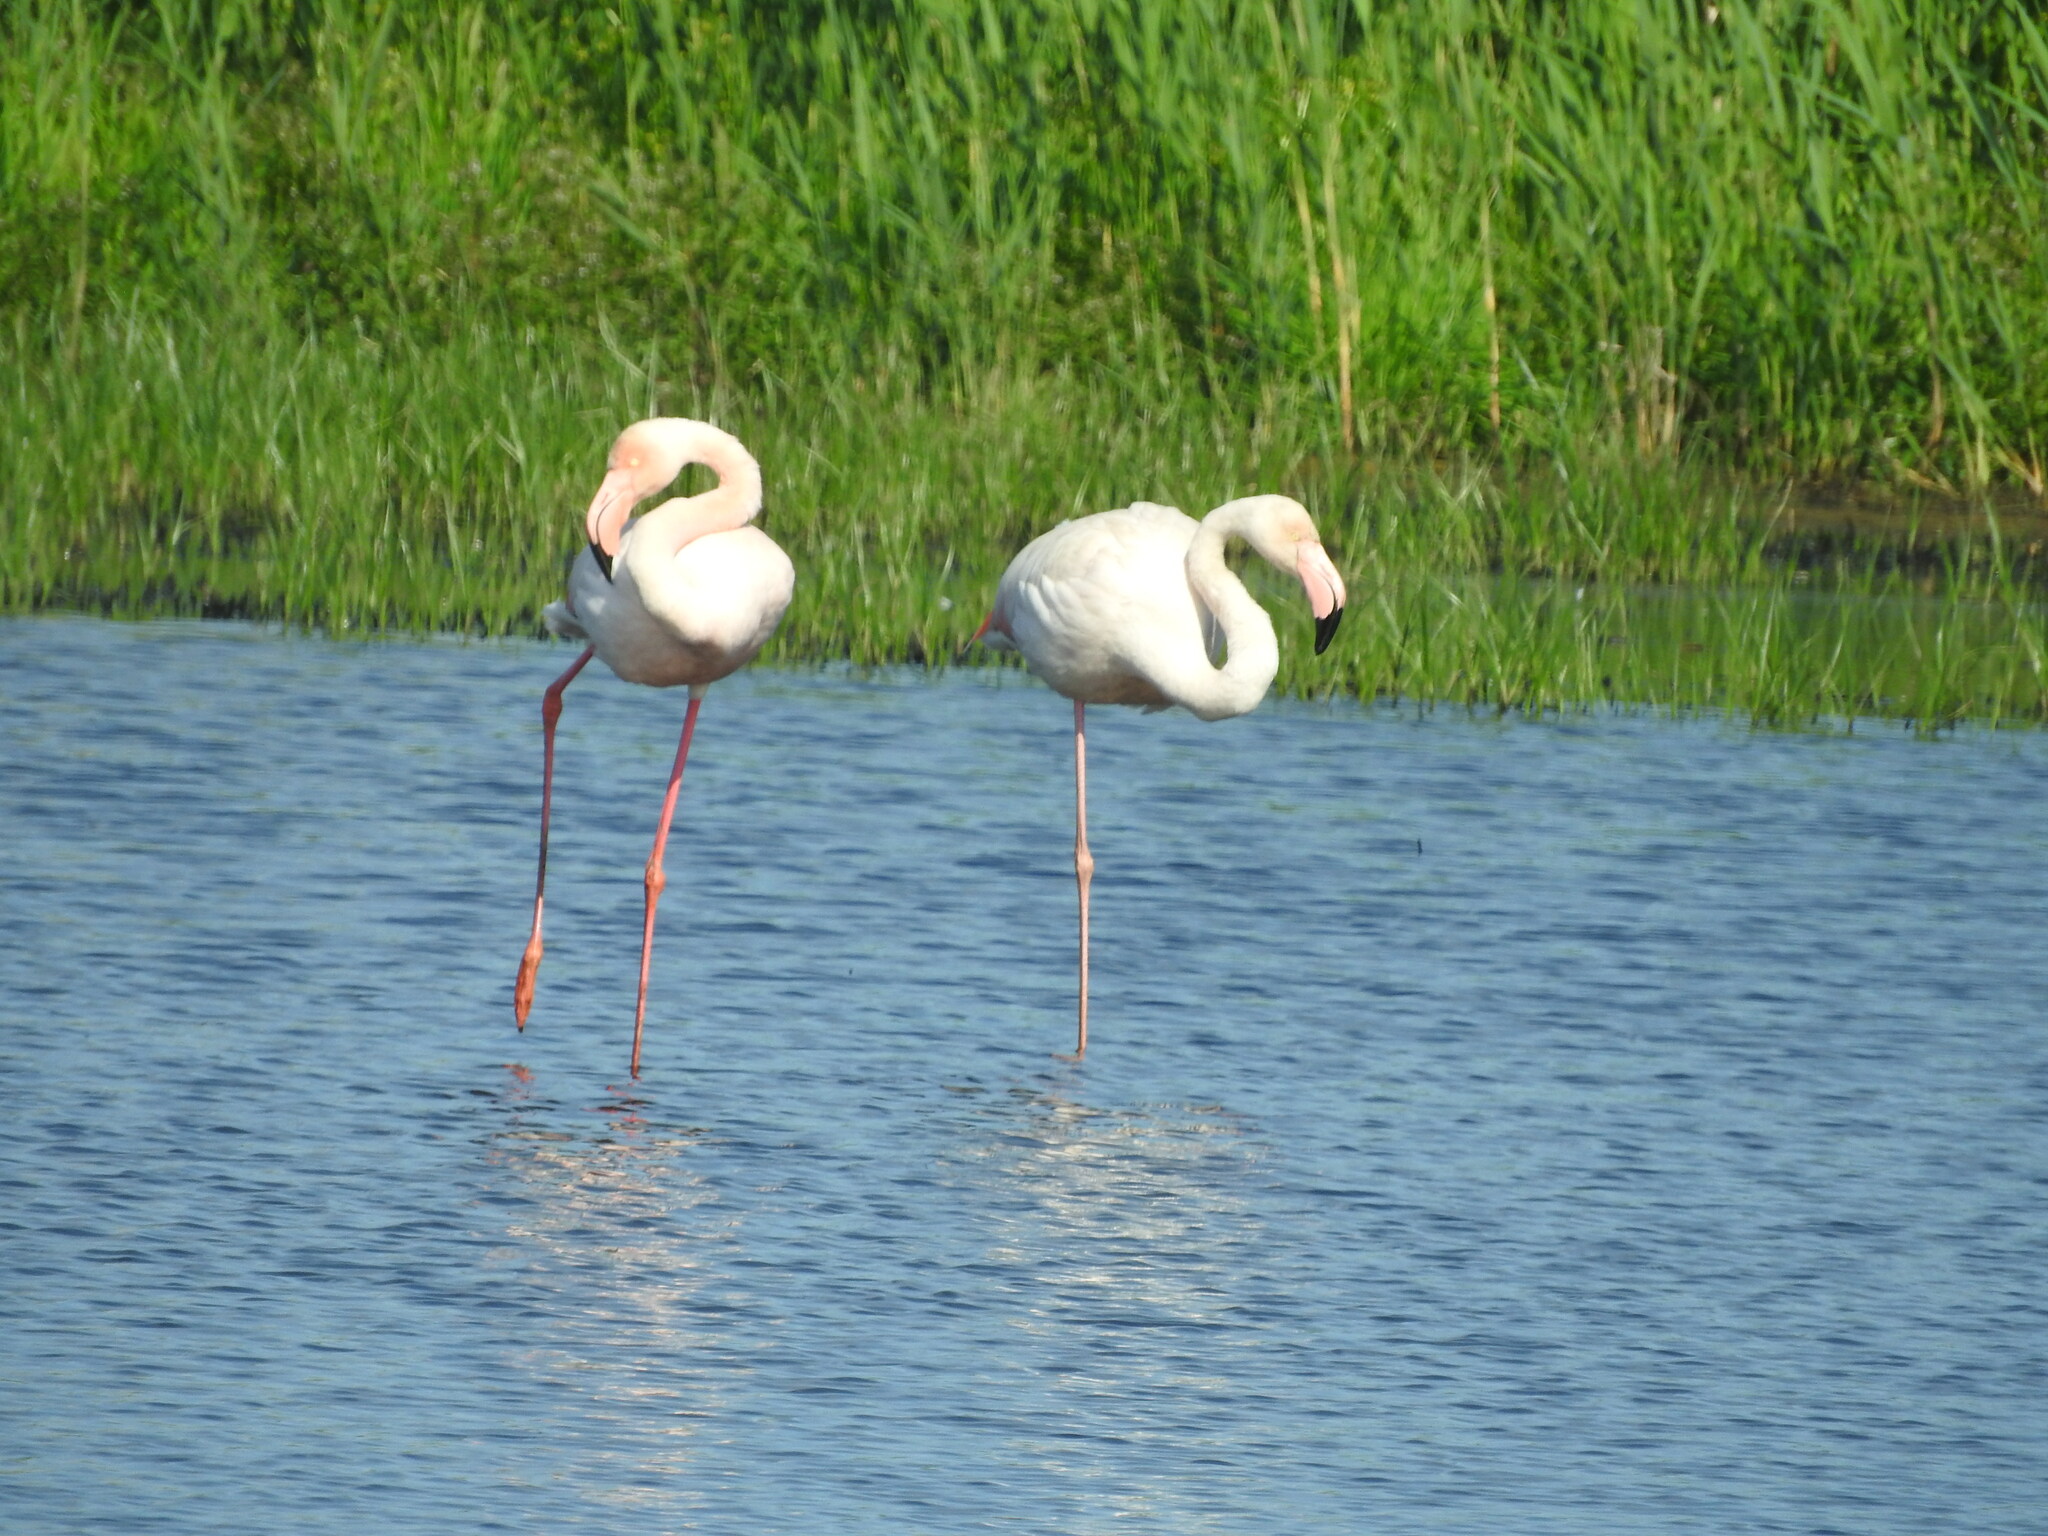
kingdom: Animalia
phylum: Chordata
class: Aves
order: Phoenicopteriformes
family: Phoenicopteridae
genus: Phoenicopterus
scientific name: Phoenicopterus roseus
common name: Greater flamingo
